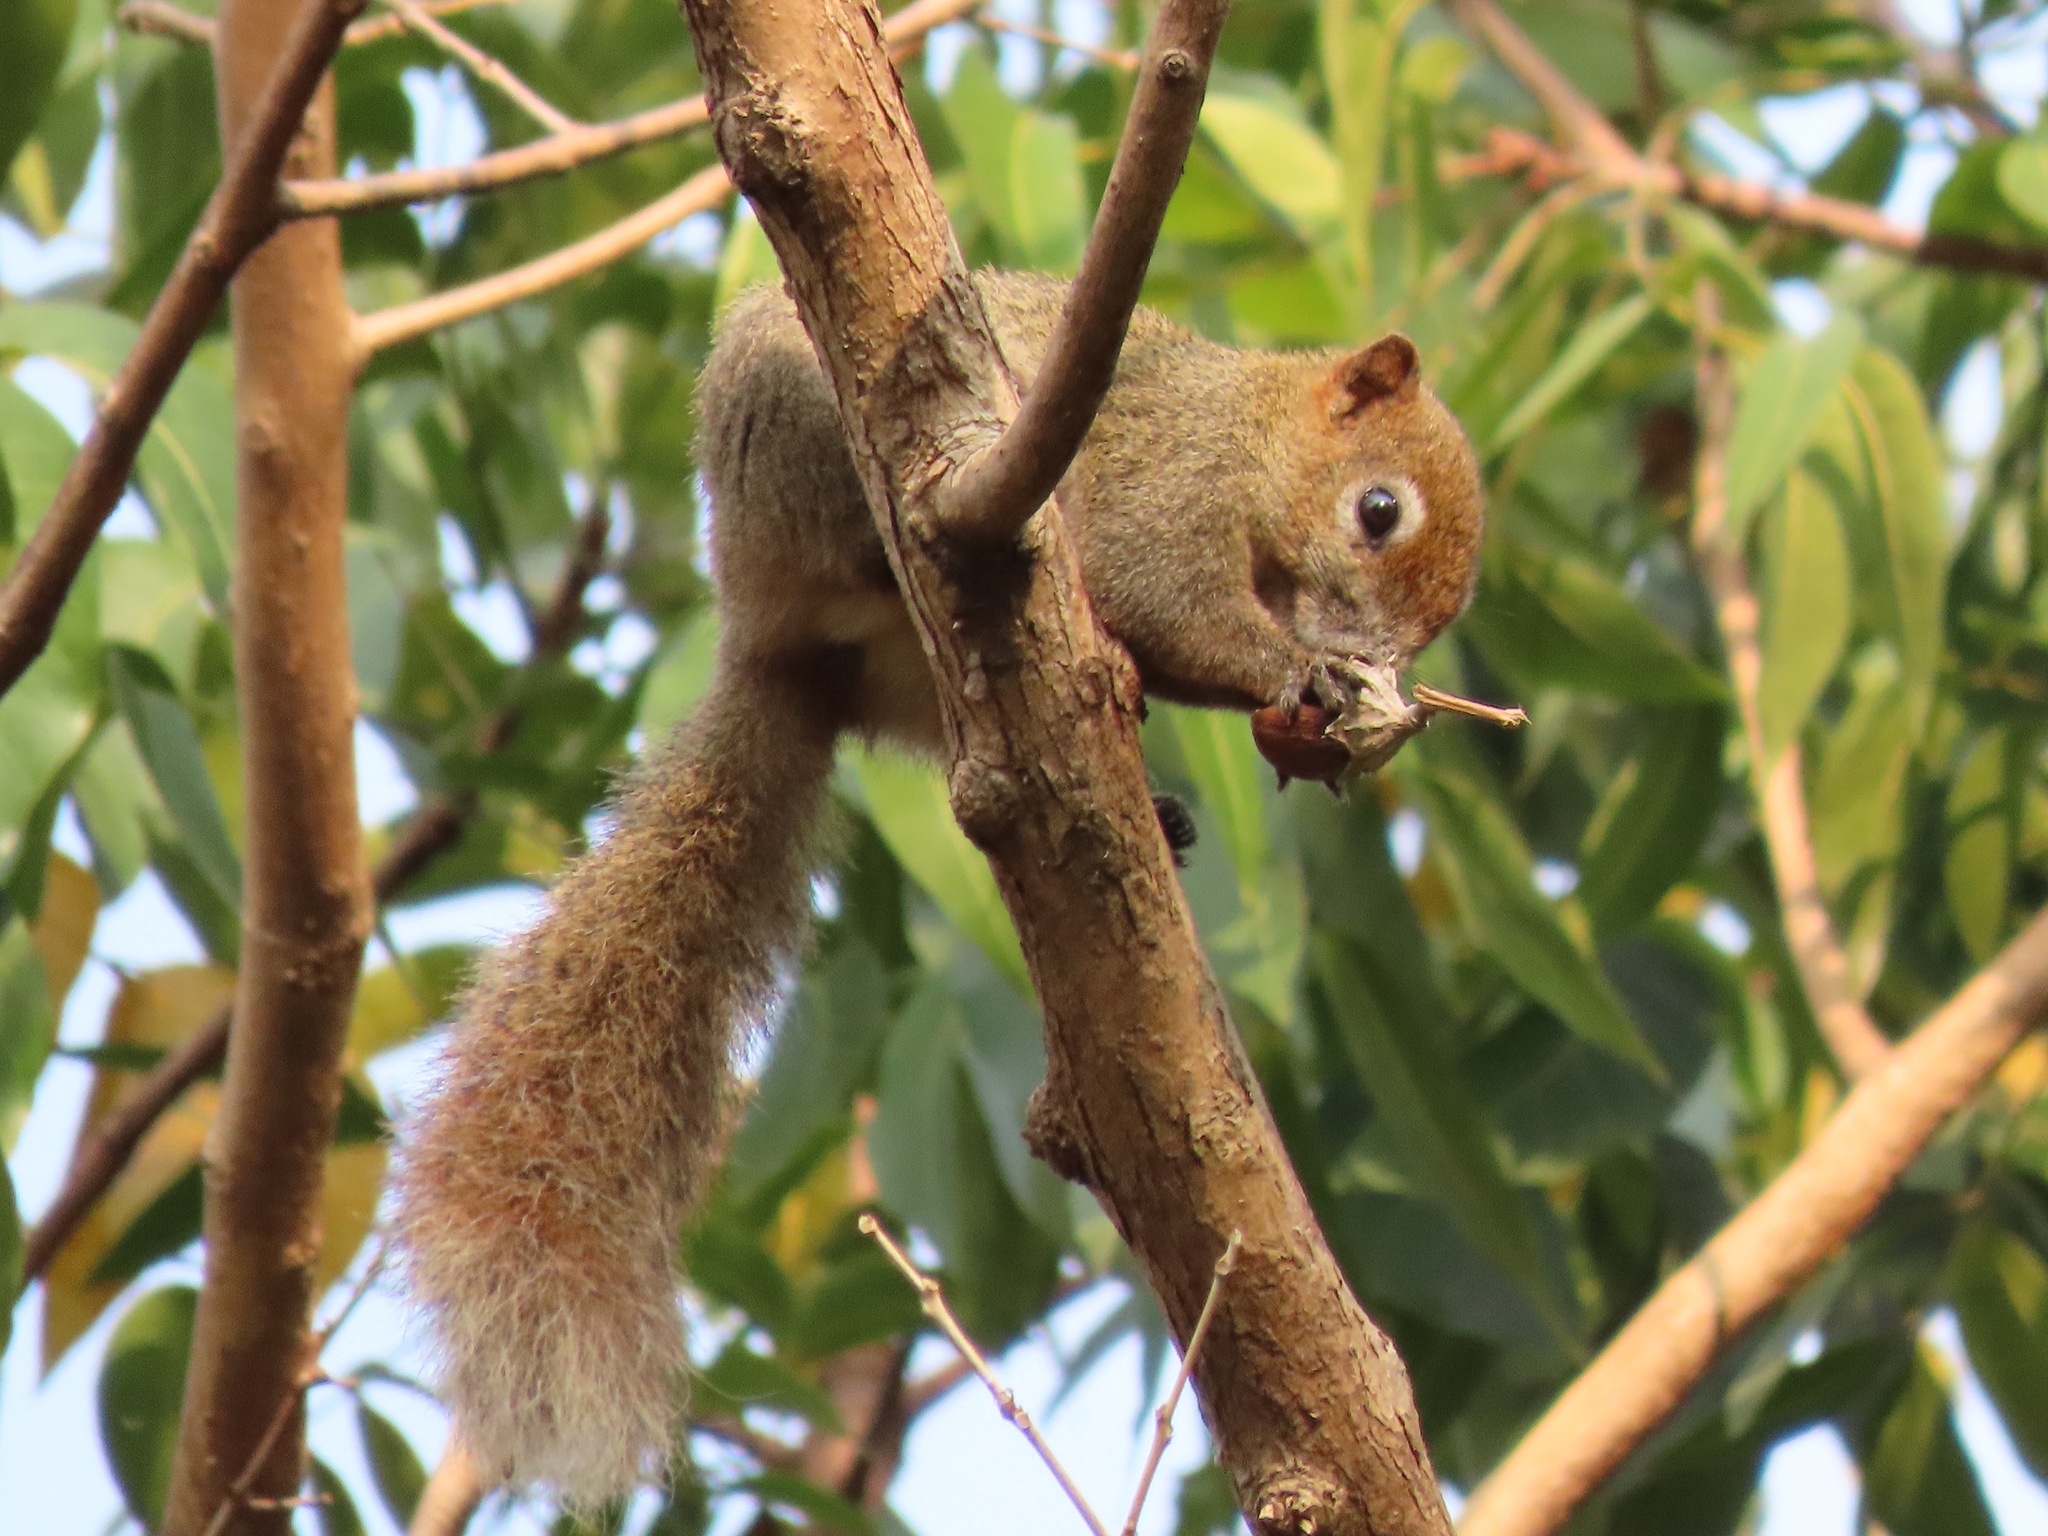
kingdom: Animalia
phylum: Chordata
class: Mammalia
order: Rodentia
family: Sciuridae
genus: Callosciurus
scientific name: Callosciurus finlaysonii
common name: Finlayson's squirrel
